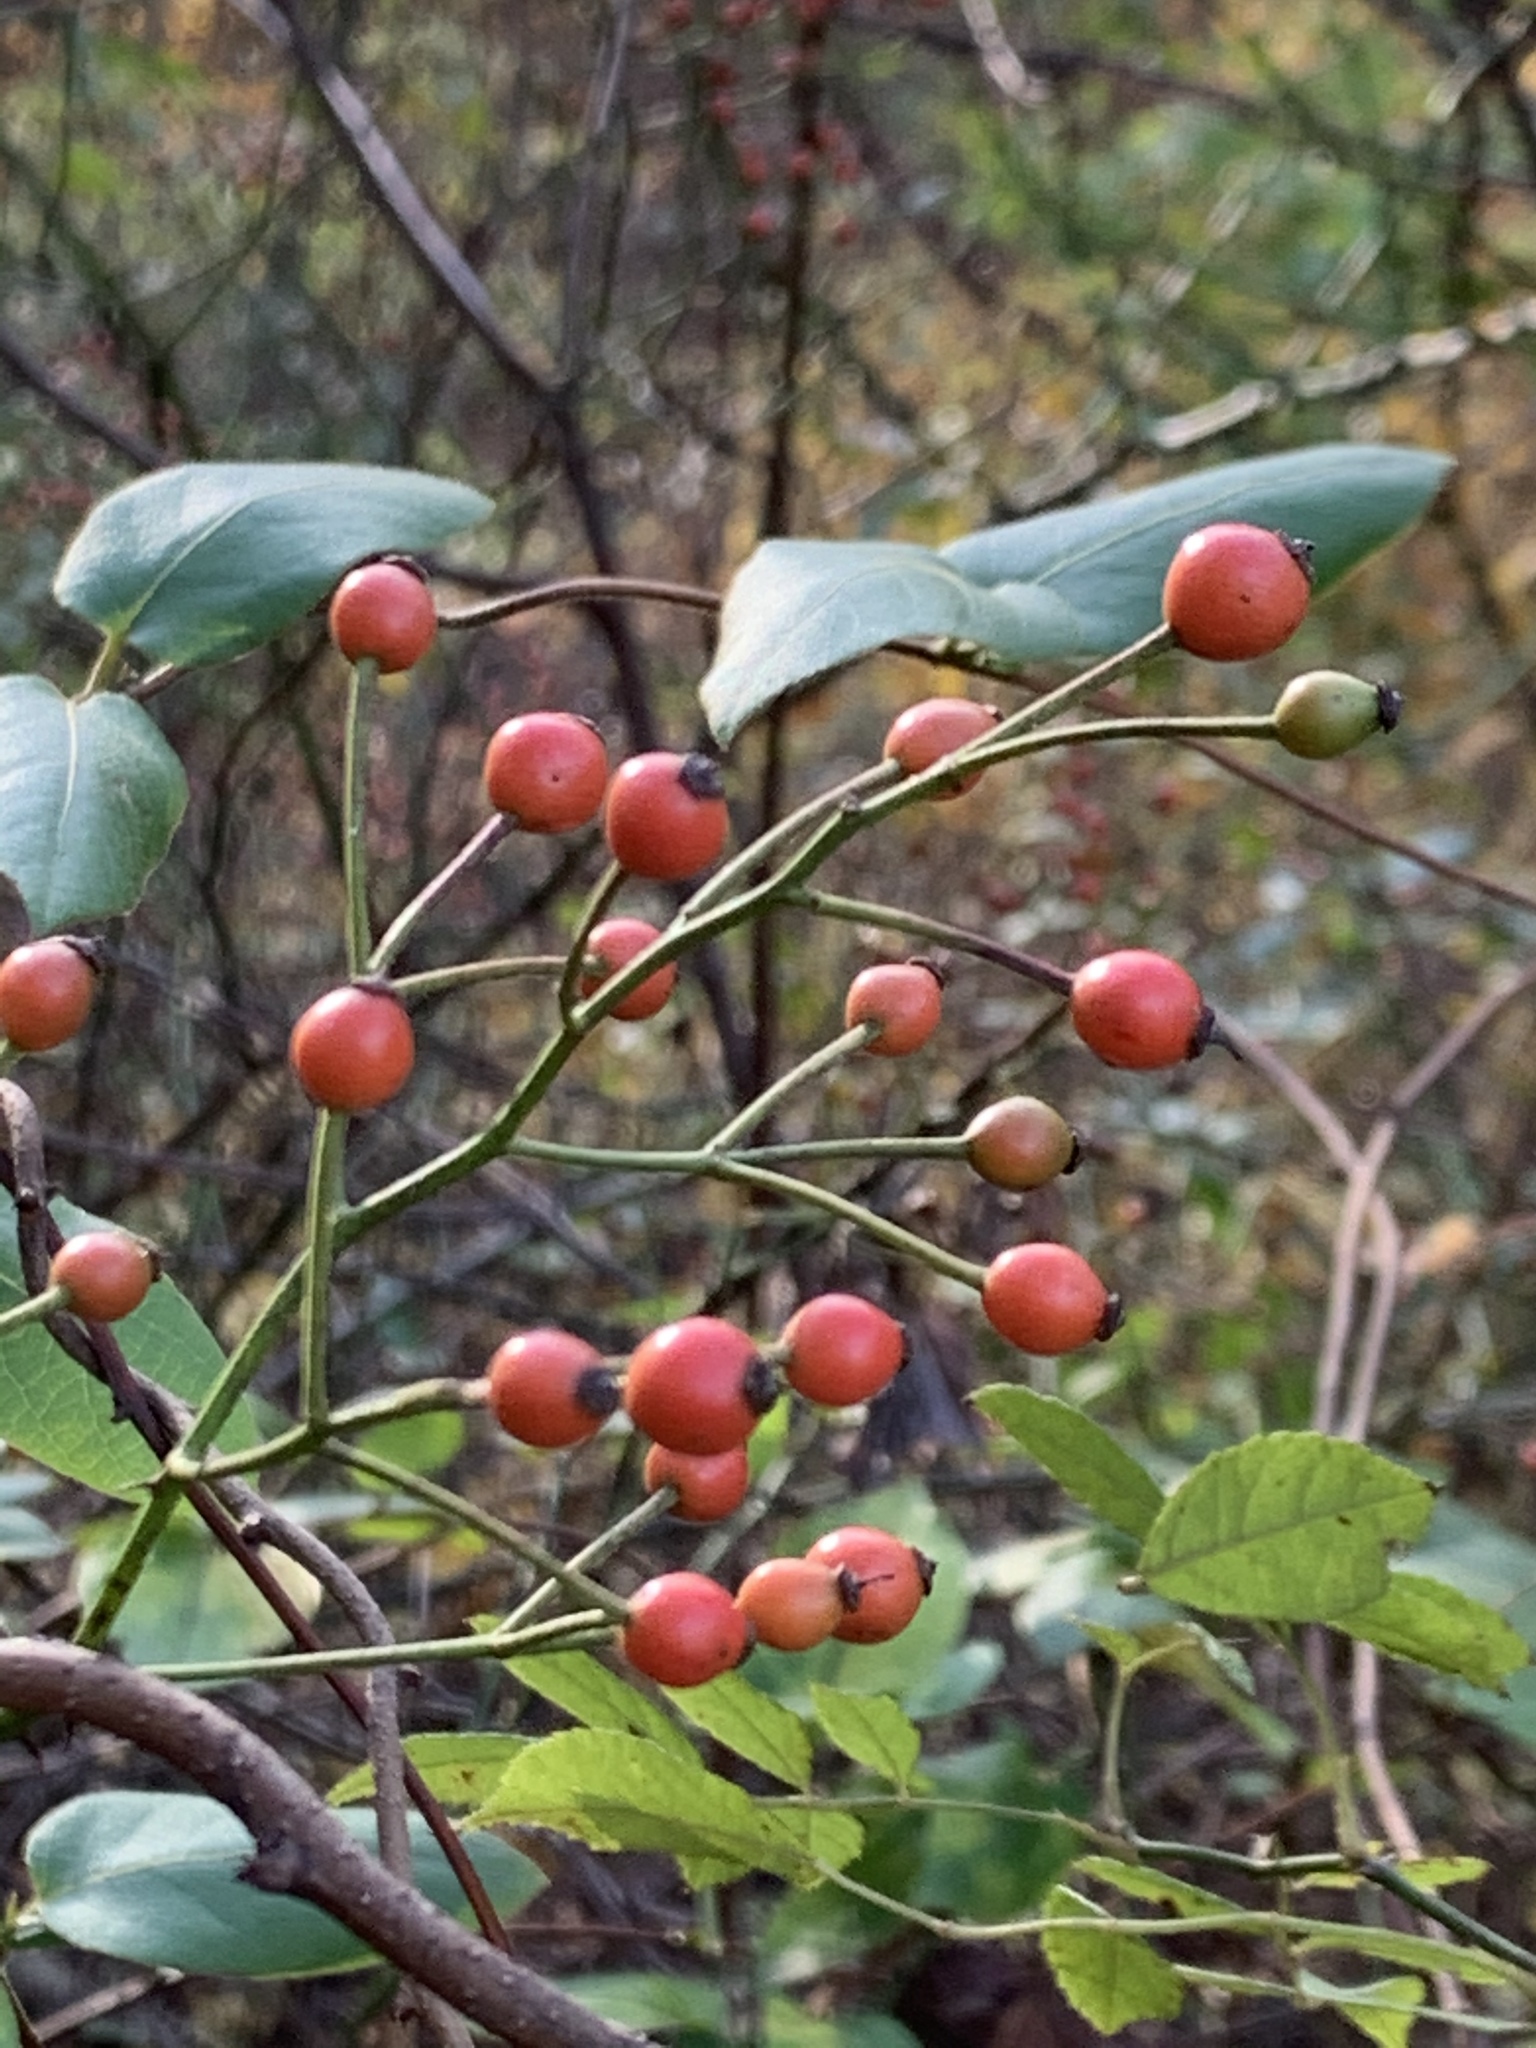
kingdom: Plantae
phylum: Tracheophyta
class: Magnoliopsida
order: Rosales
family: Rosaceae
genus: Rosa
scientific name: Rosa multiflora
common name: Multiflora rose
